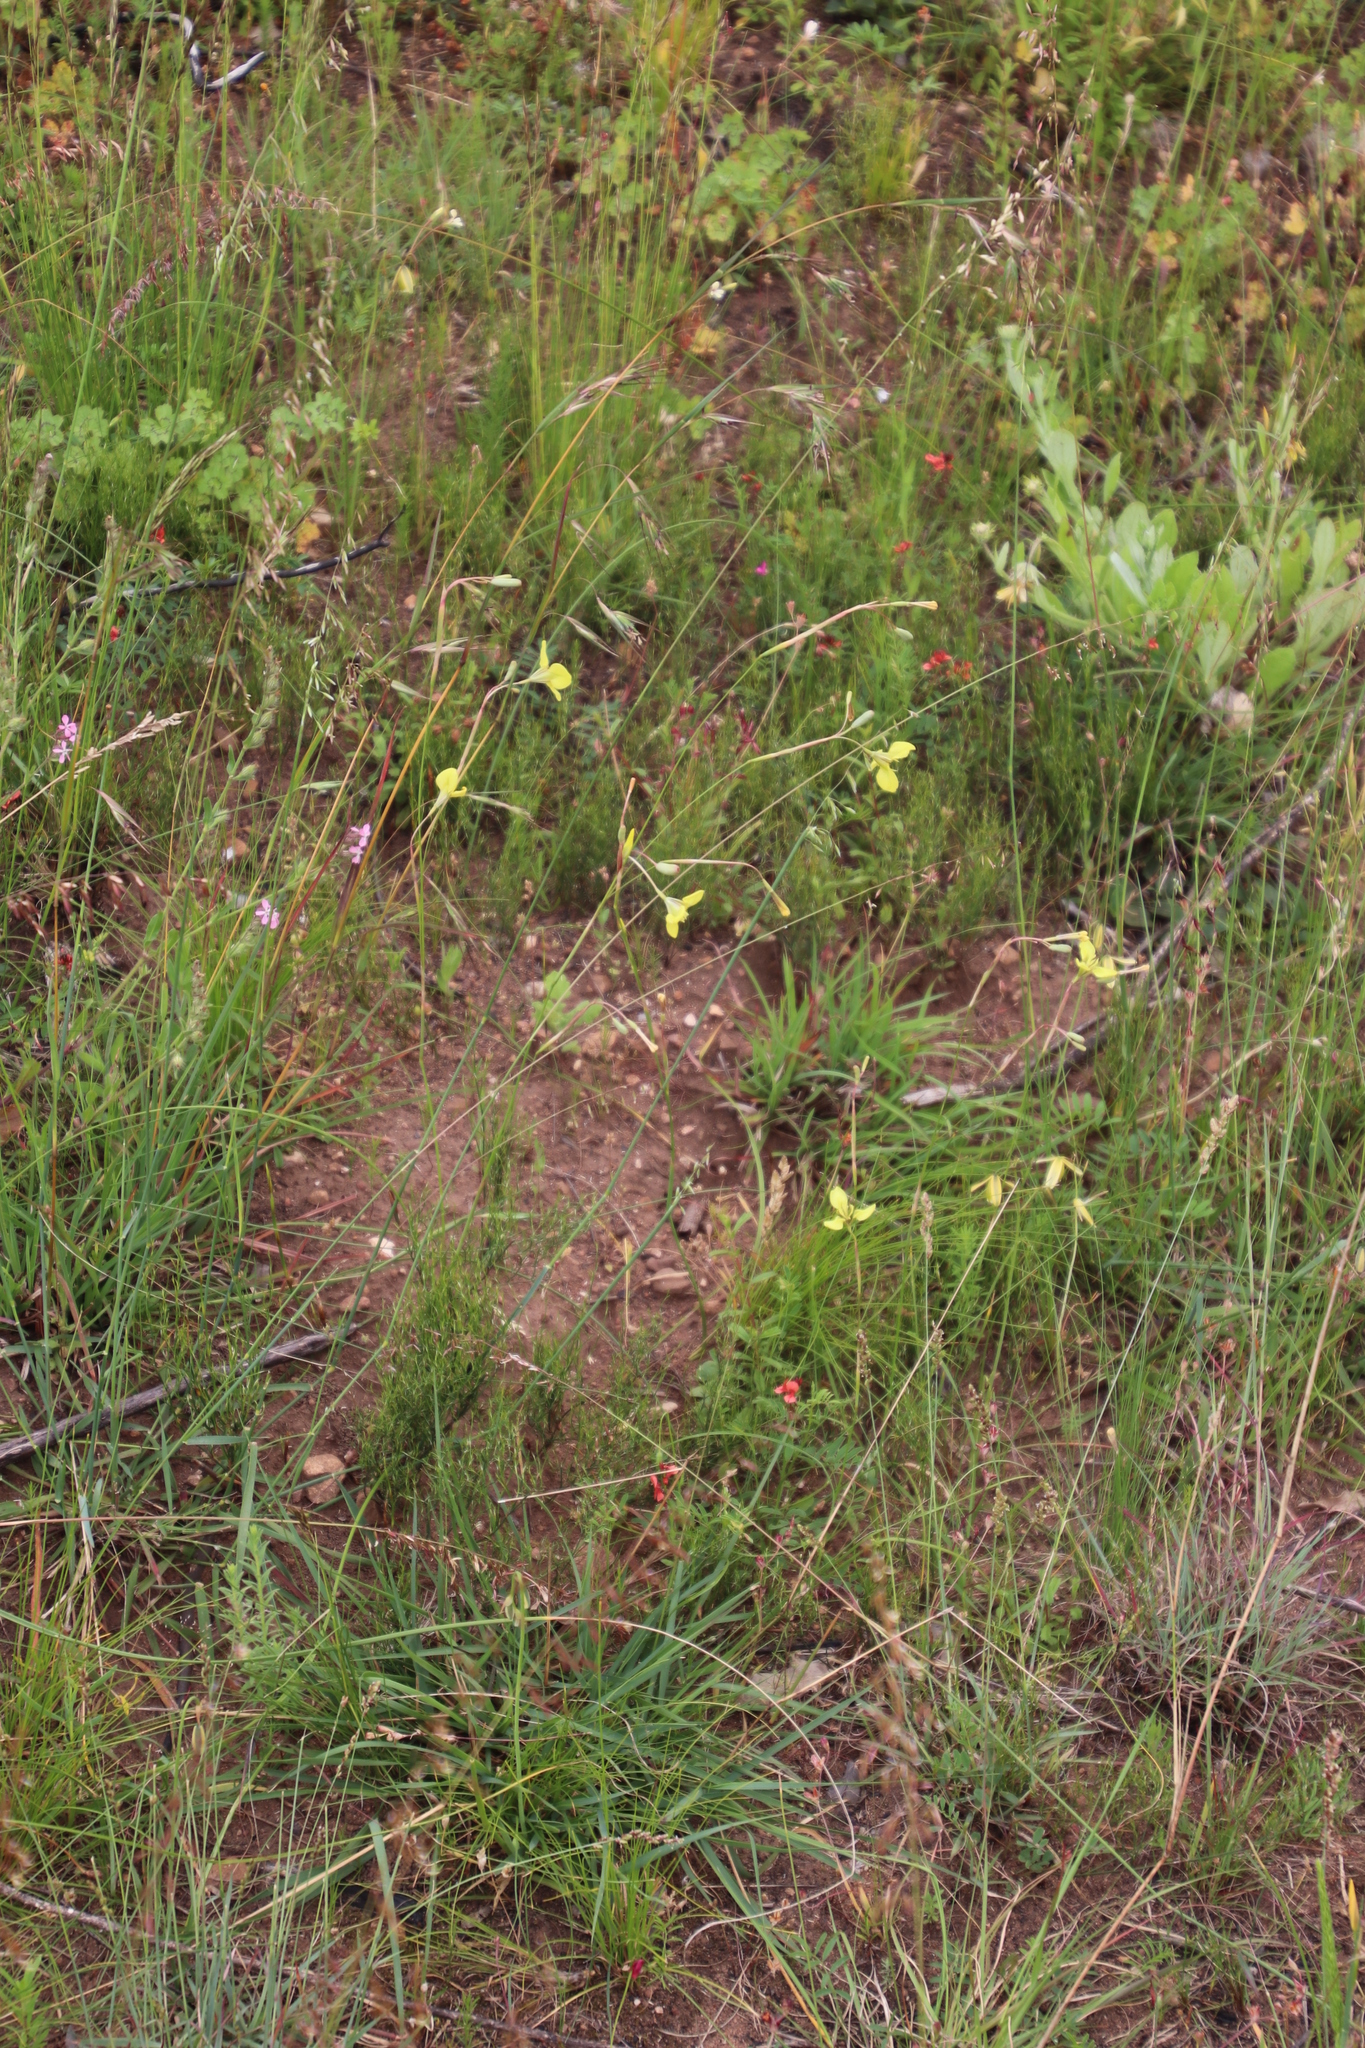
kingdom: Plantae
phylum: Tracheophyta
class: Liliopsida
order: Asparagales
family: Iridaceae
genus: Moraea
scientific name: Moraea bellendenii
